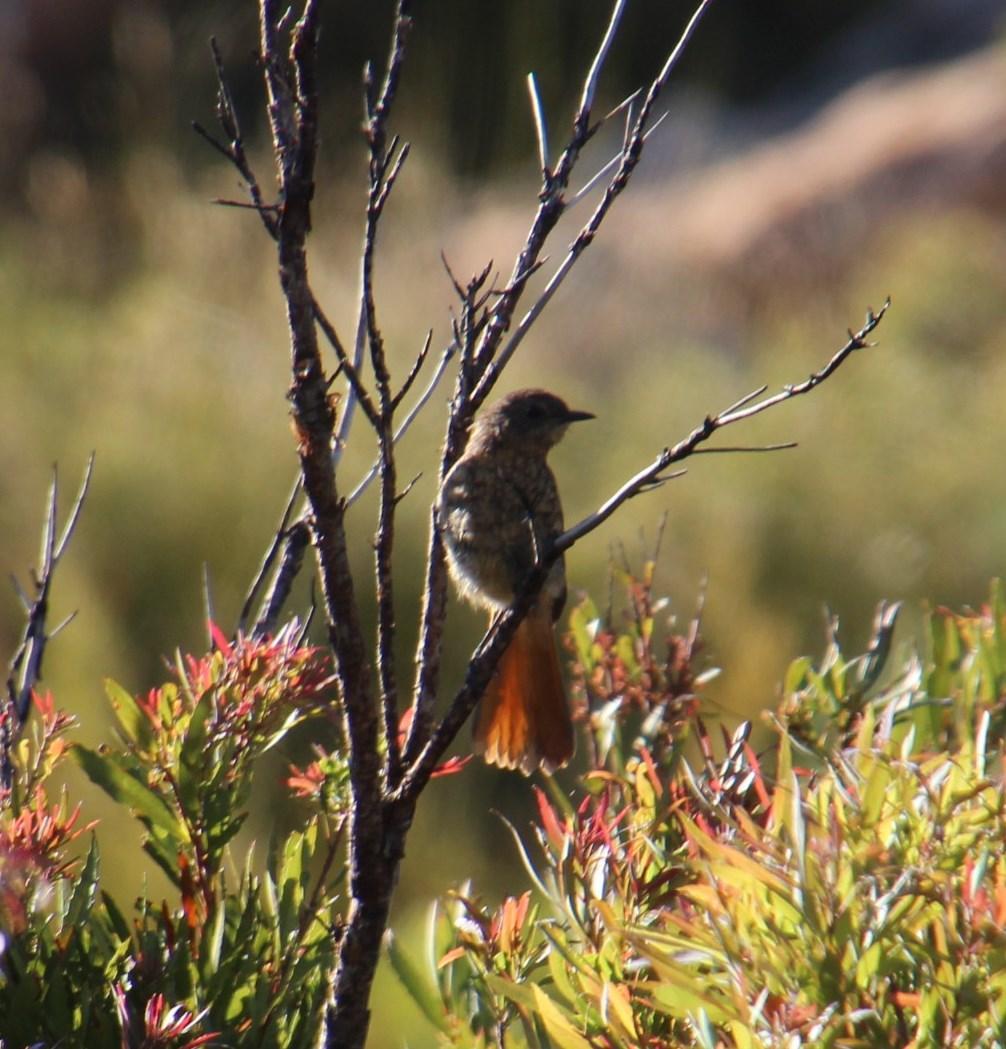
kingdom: Animalia
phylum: Chordata
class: Aves
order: Passeriformes
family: Muscicapidae
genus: Cossypha
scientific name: Cossypha caffra
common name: Cape robin-chat
